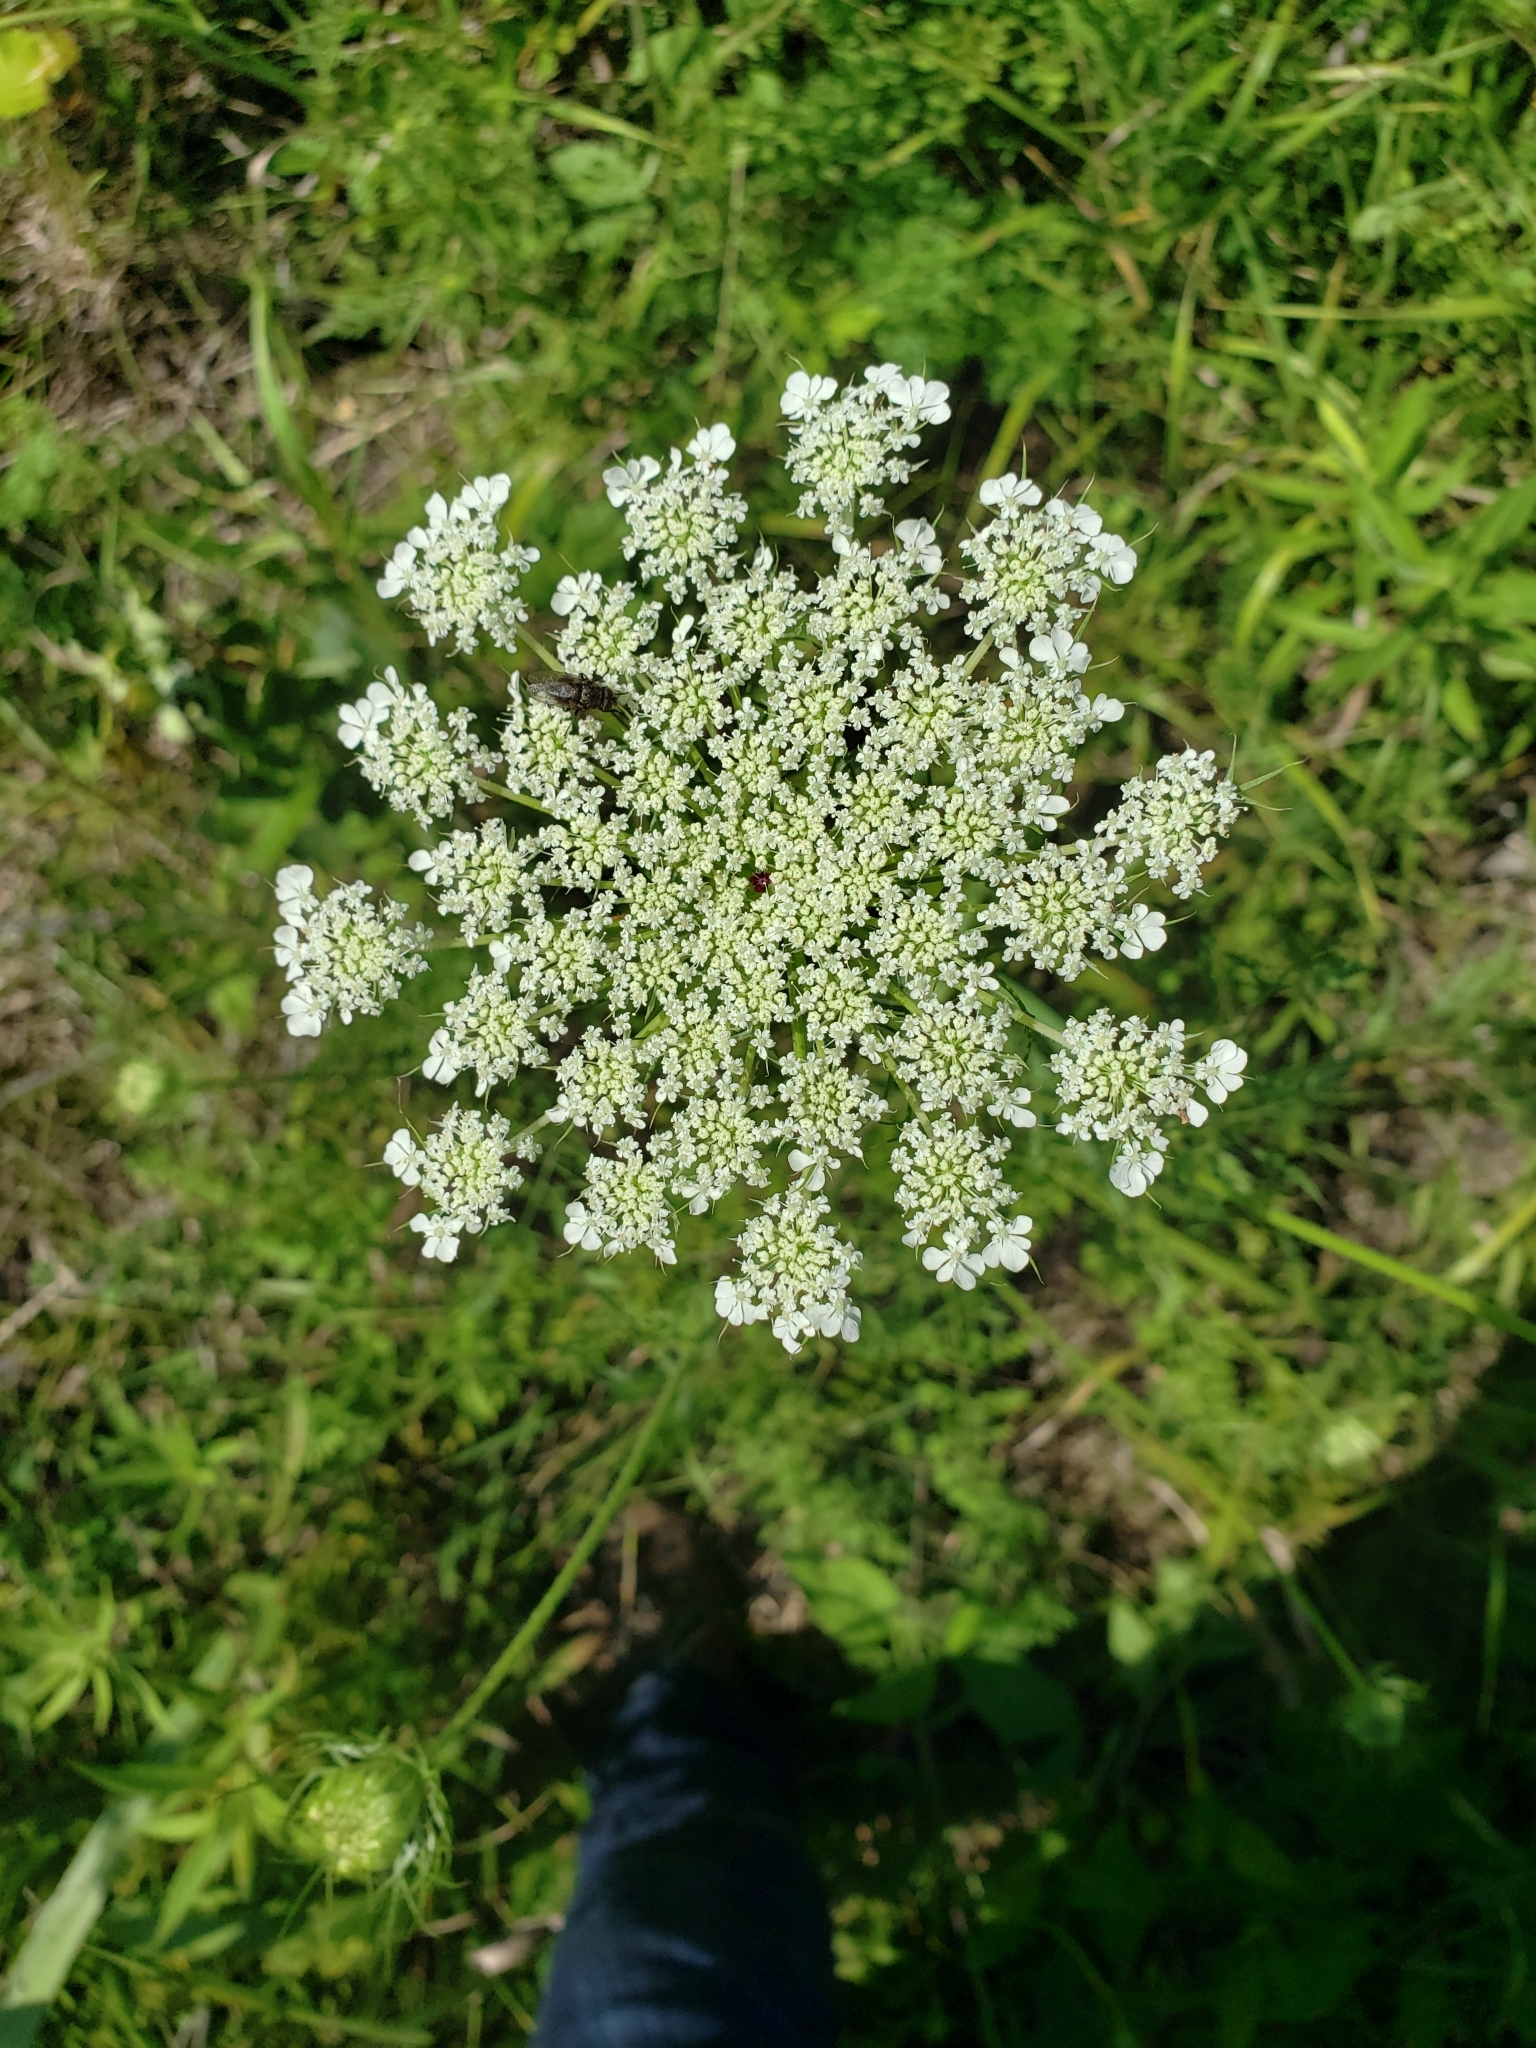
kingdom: Plantae
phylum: Tracheophyta
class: Magnoliopsida
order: Apiales
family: Apiaceae
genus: Daucus
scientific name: Daucus carota
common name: Wild carrot
